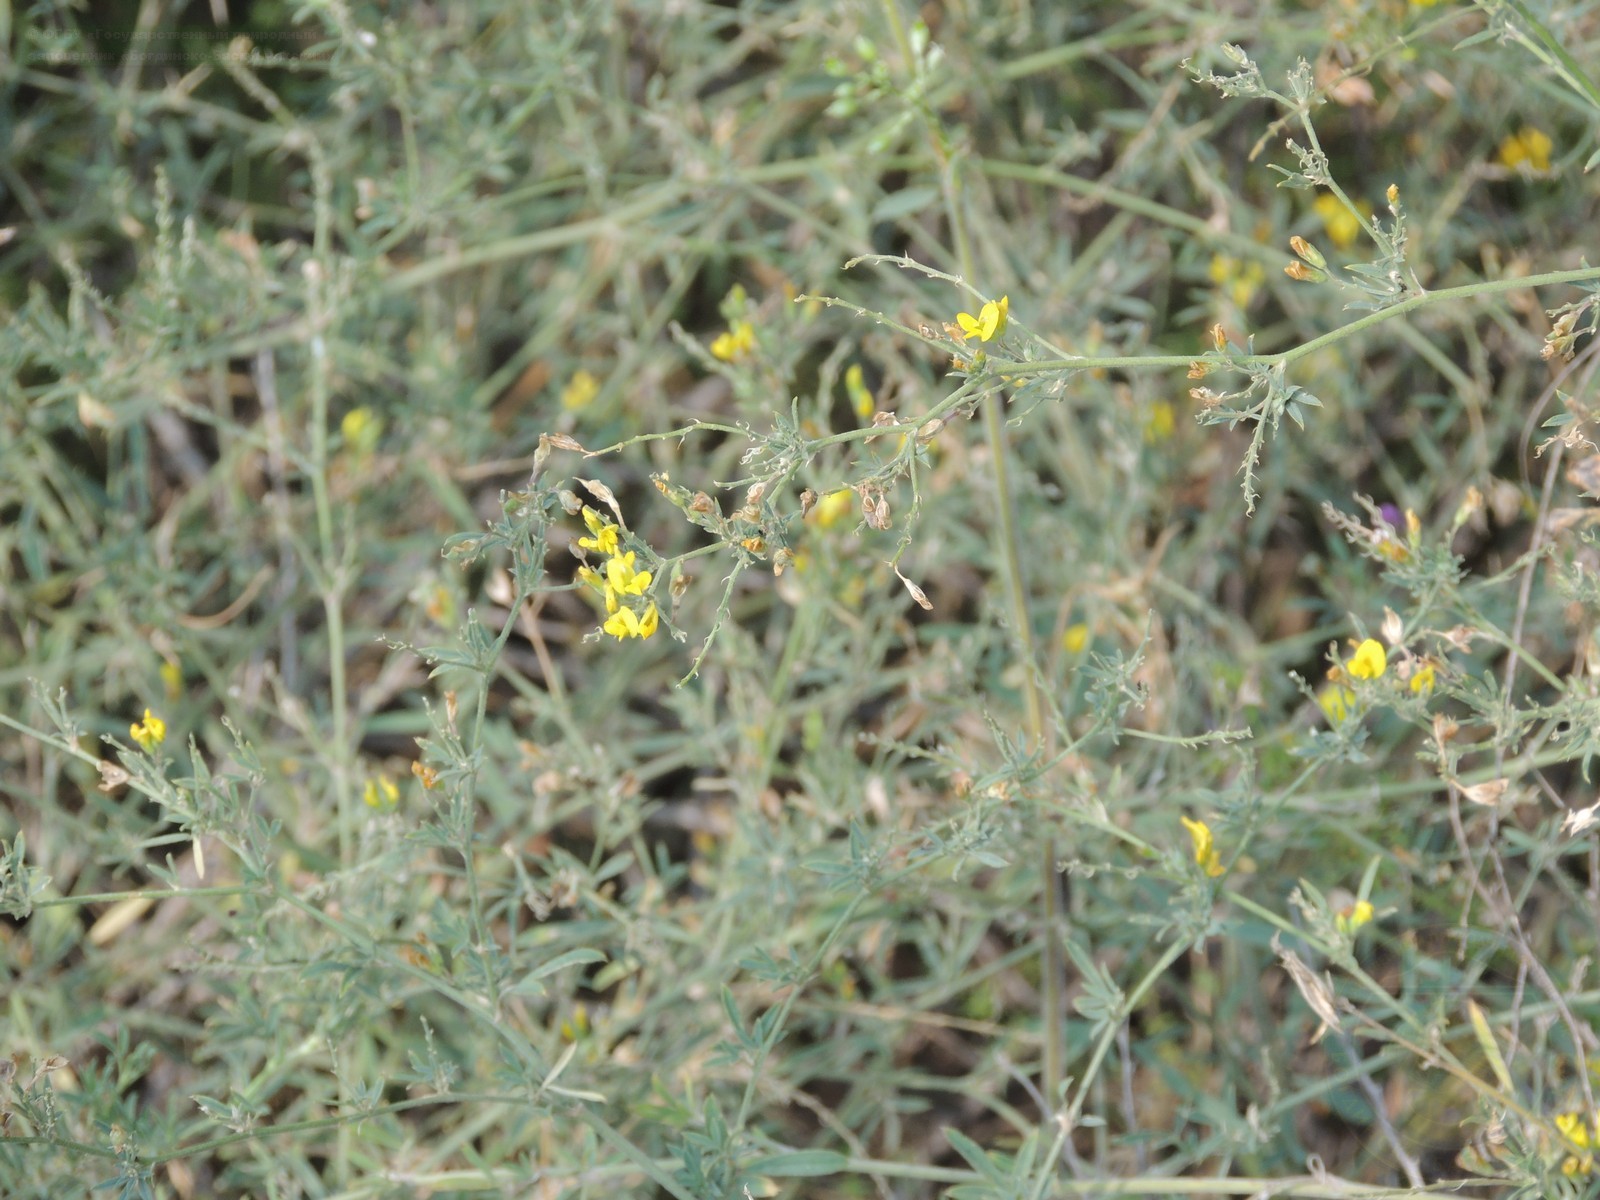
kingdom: Plantae
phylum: Tracheophyta
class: Magnoliopsida
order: Fabales
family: Fabaceae
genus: Medicago
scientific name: Medicago falcata
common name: Sickle medick
